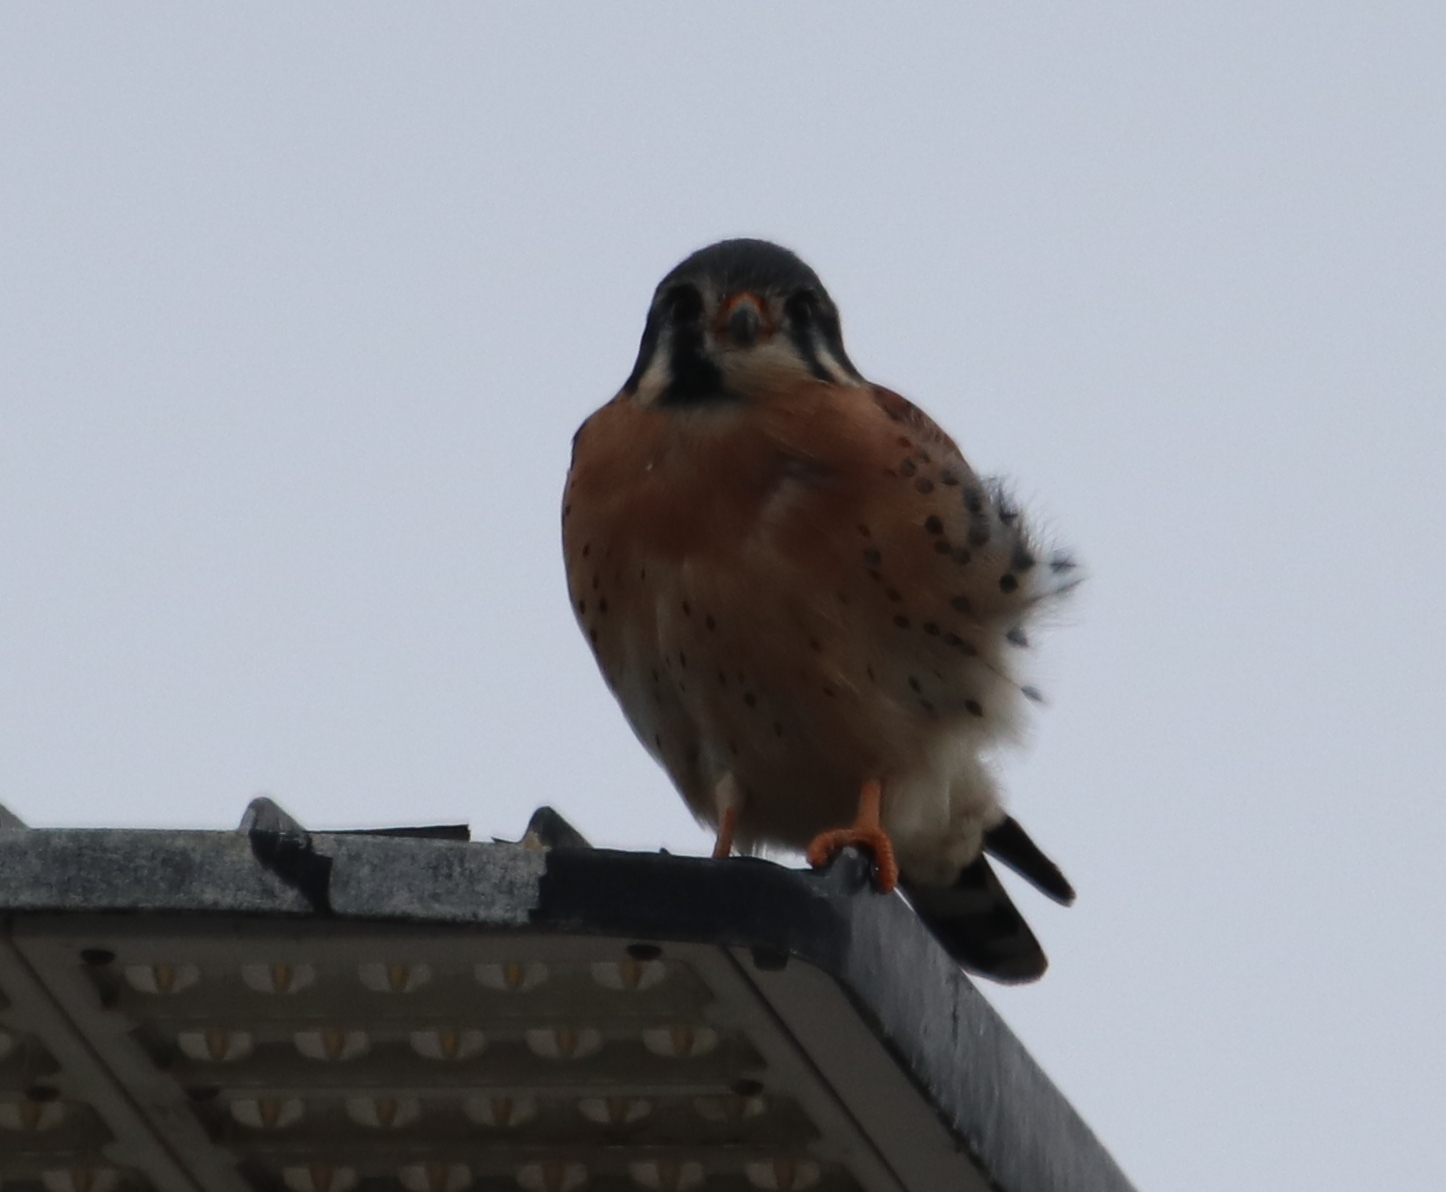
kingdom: Animalia
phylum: Chordata
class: Aves
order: Falconiformes
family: Falconidae
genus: Falco
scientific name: Falco sparverius
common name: American kestrel
